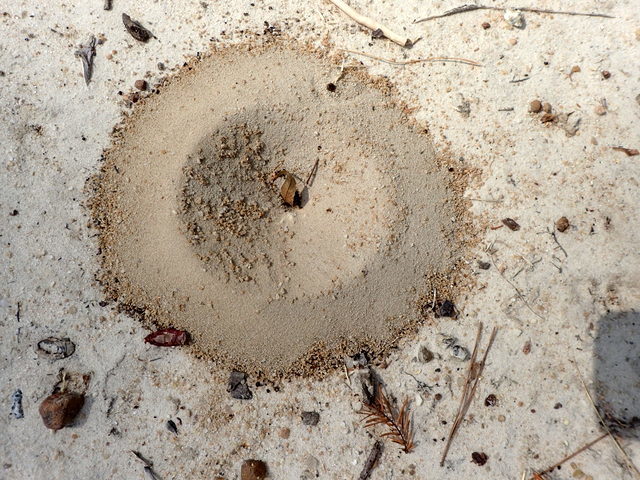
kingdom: Animalia
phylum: Arthropoda
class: Insecta
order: Hymenoptera
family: Formicidae
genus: Dorymyrmex
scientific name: Dorymyrmex bureni
